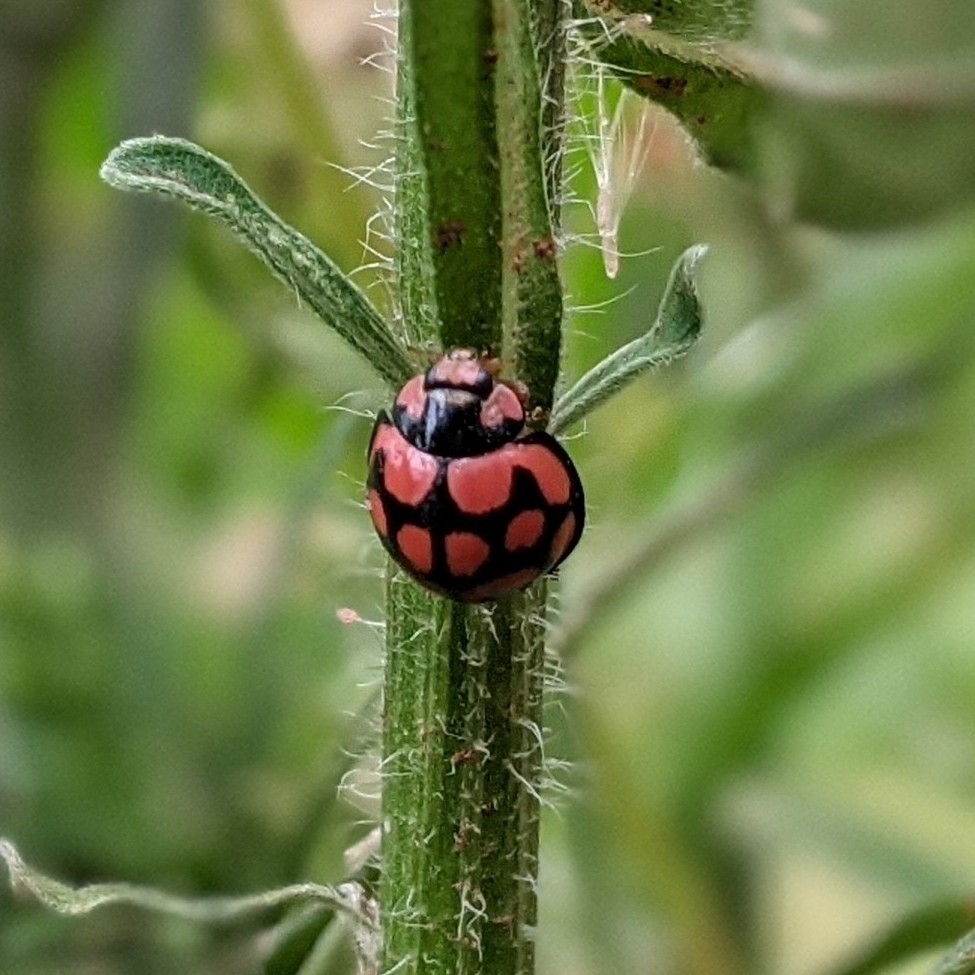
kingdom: Animalia
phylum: Arthropoda
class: Insecta
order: Coleoptera
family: Coccinellidae
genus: Cheilomenes
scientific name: Cheilomenes lunata
